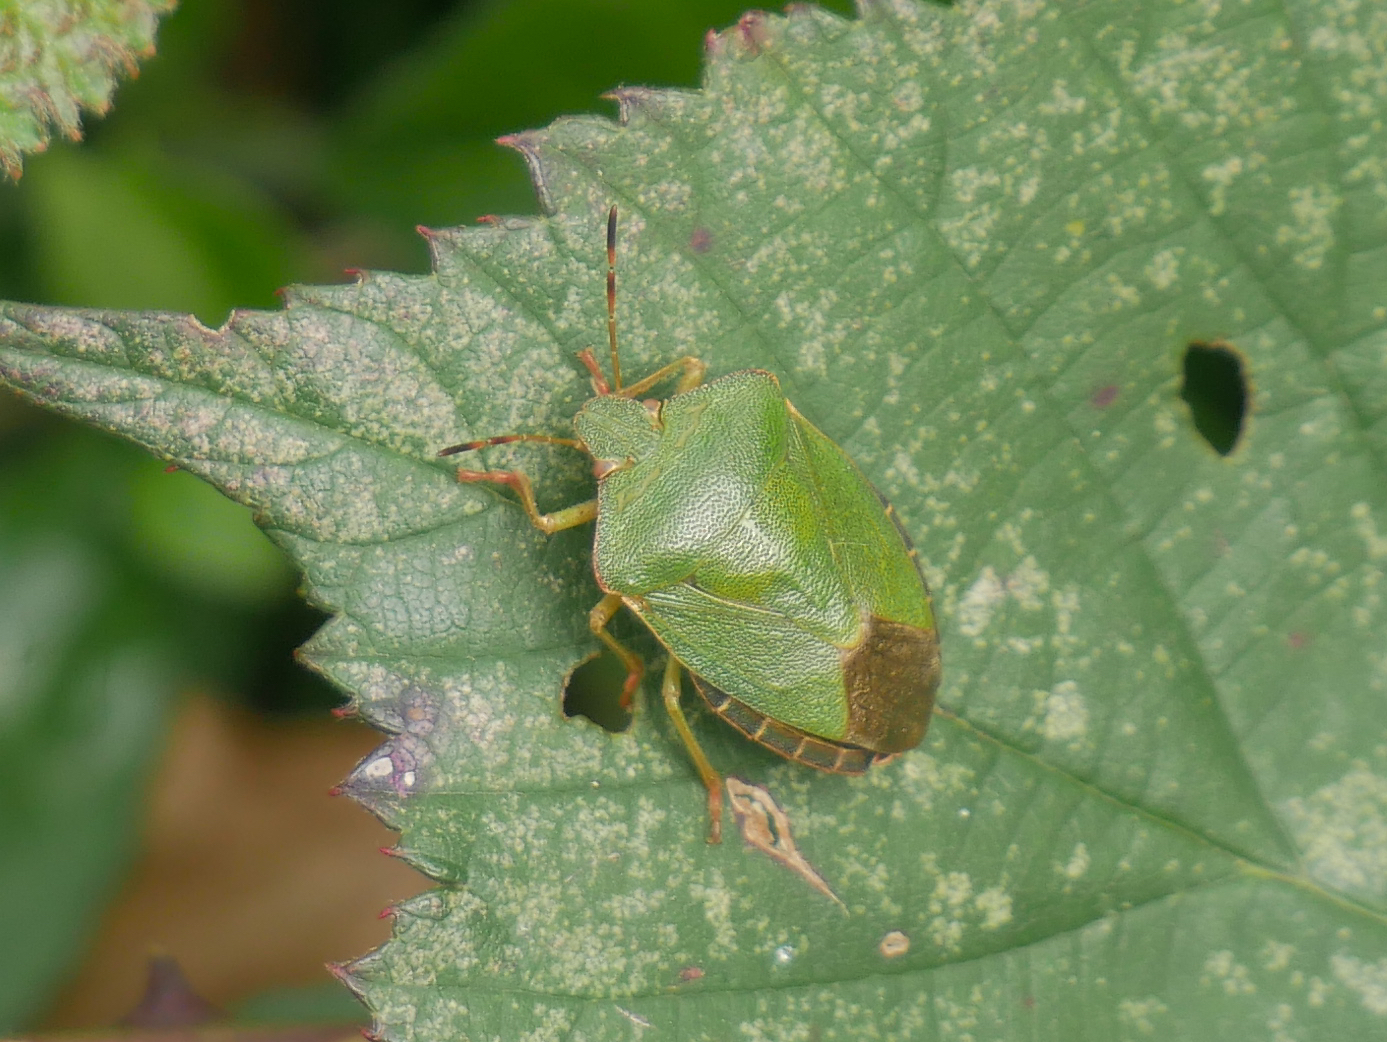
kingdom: Animalia
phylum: Arthropoda
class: Insecta
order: Hemiptera
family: Pentatomidae
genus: Palomena
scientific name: Palomena prasina
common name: Green shieldbug
